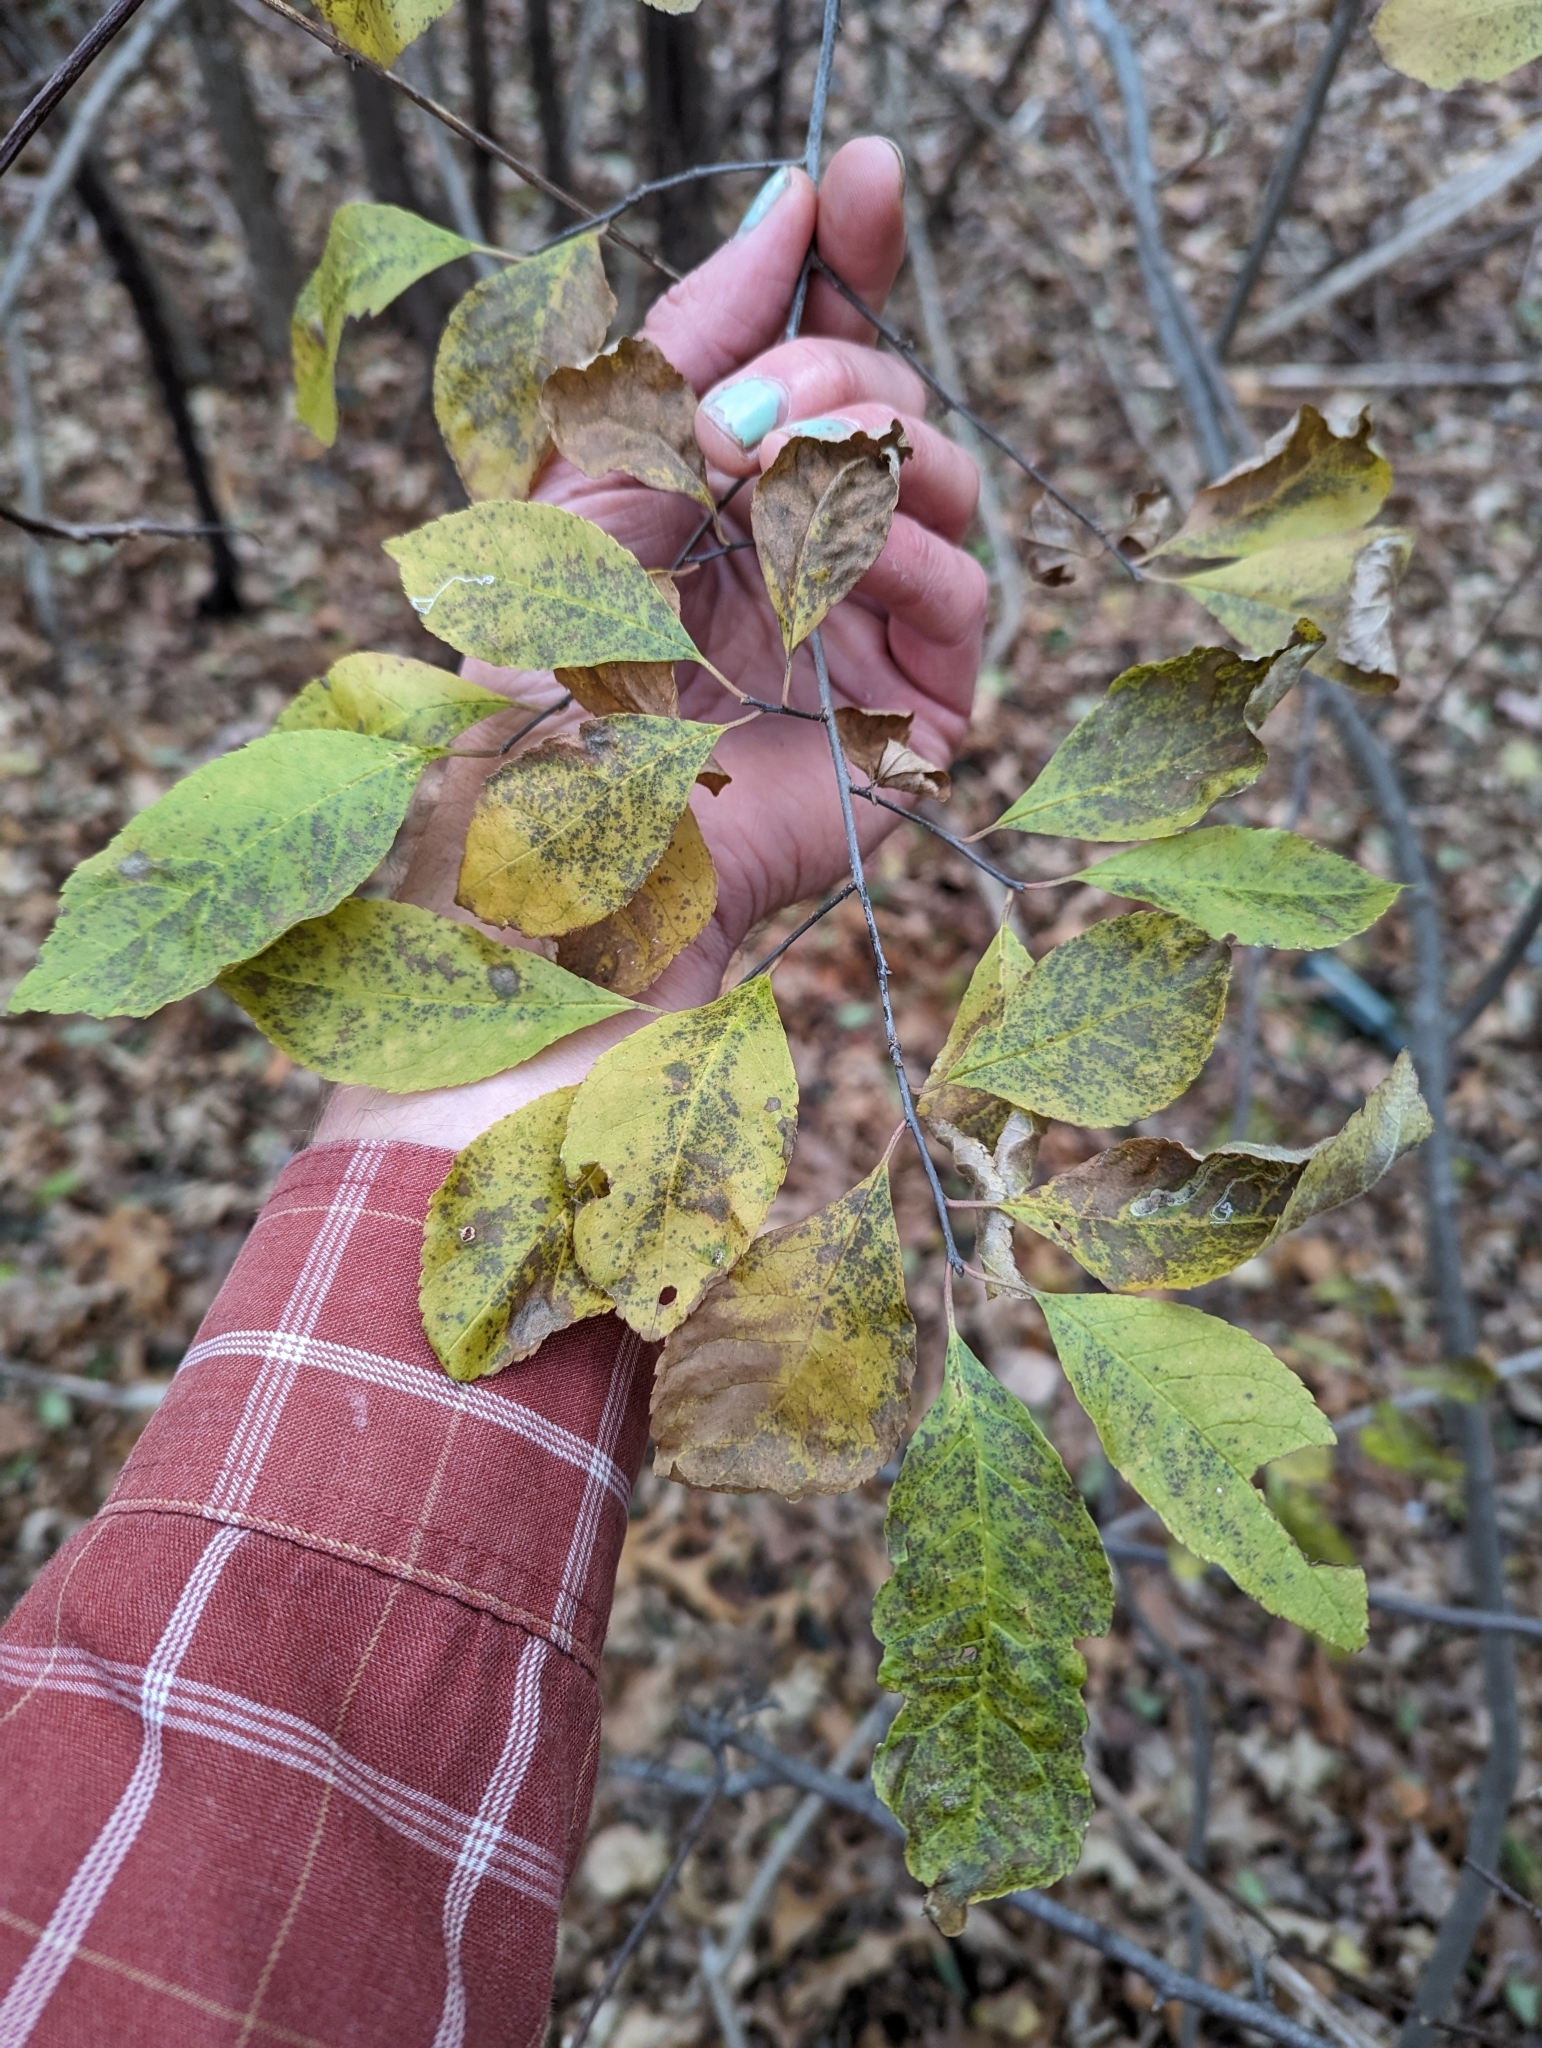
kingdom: Plantae
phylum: Tracheophyta
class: Magnoliopsida
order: Aquifoliales
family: Aquifoliaceae
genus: Ilex
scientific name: Ilex verticillata
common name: Virginia winterberry
